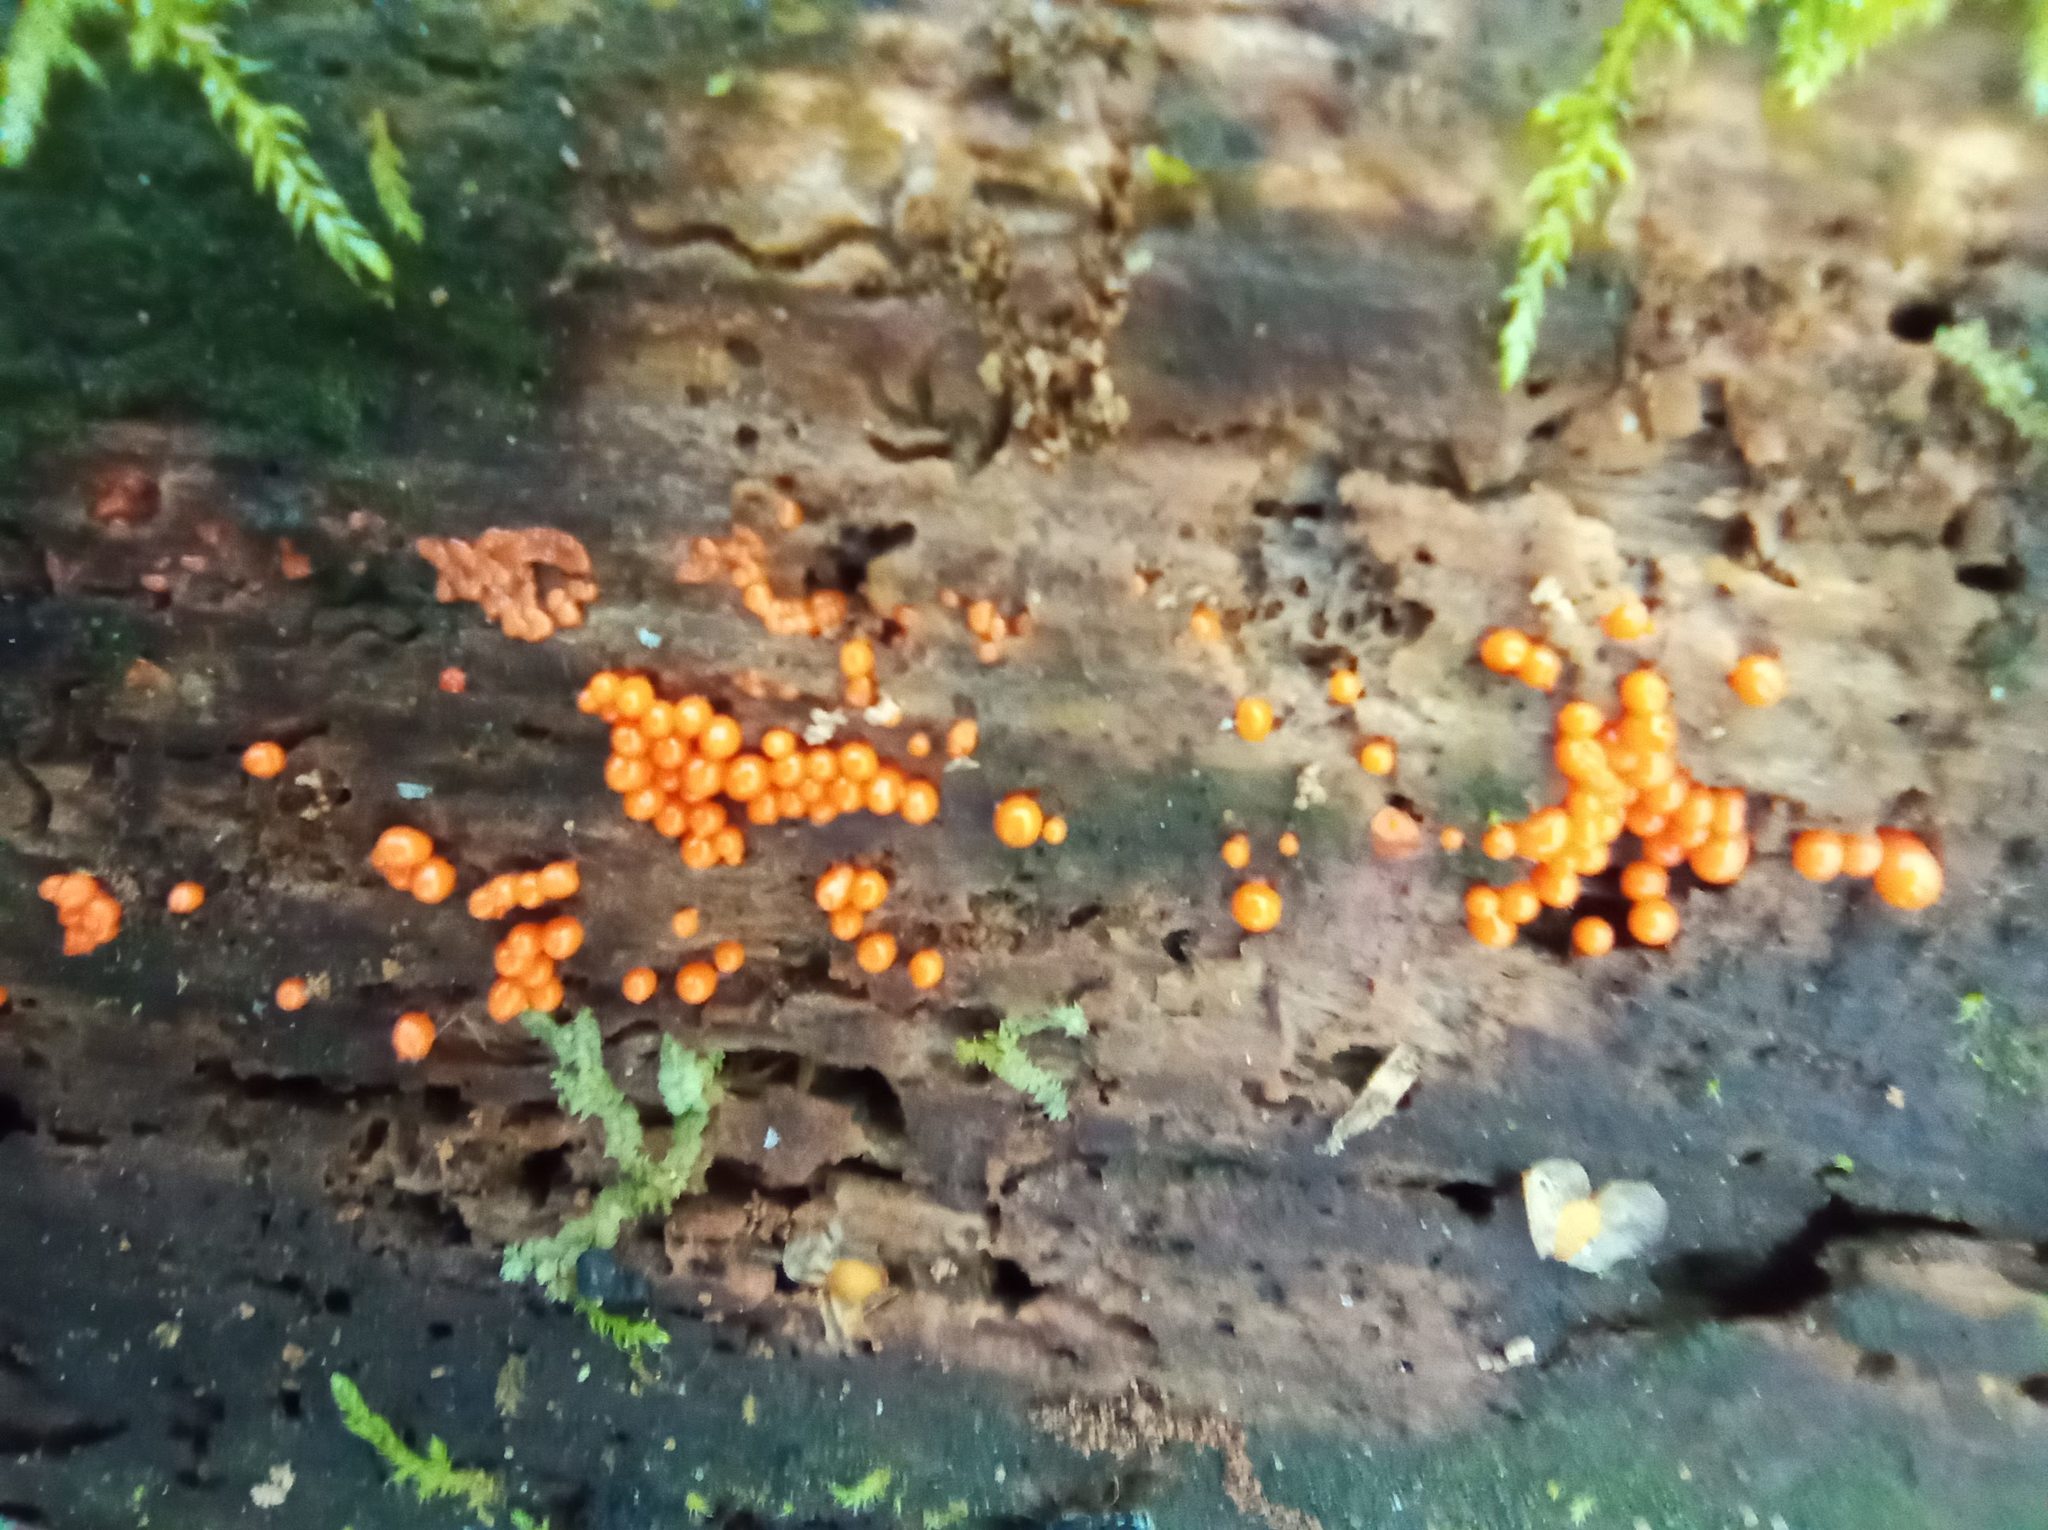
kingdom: Protozoa
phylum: Mycetozoa
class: Myxomycetes
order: Trichiales
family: Arcyriaceae
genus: Hemitrichia
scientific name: Hemitrichia decipiens
